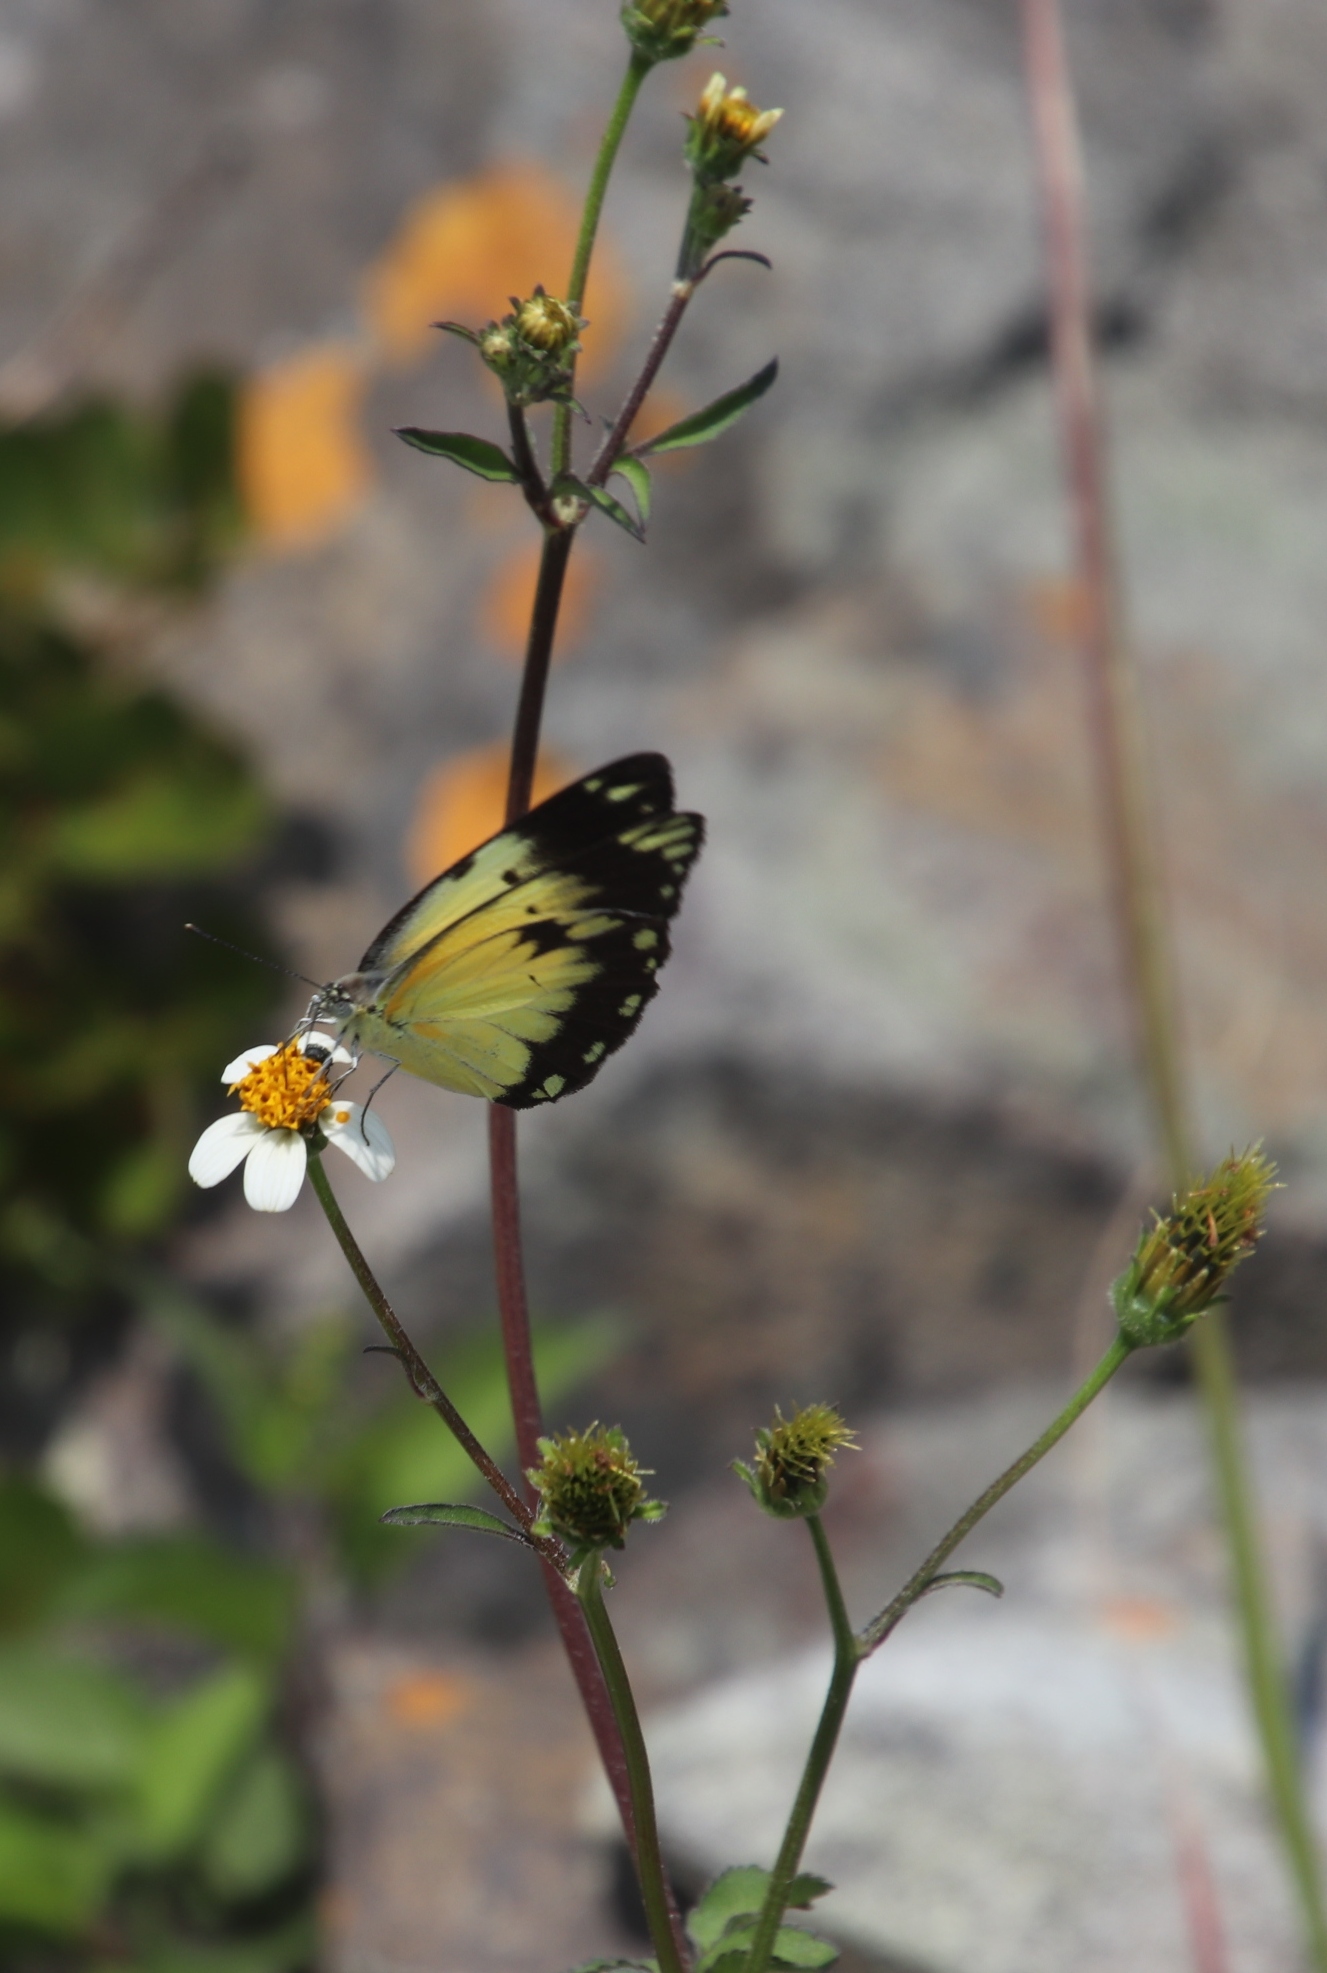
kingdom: Animalia
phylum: Arthropoda
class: Insecta
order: Lepidoptera
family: Pieridae
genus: Belenois
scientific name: Belenois creona
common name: African caper white
